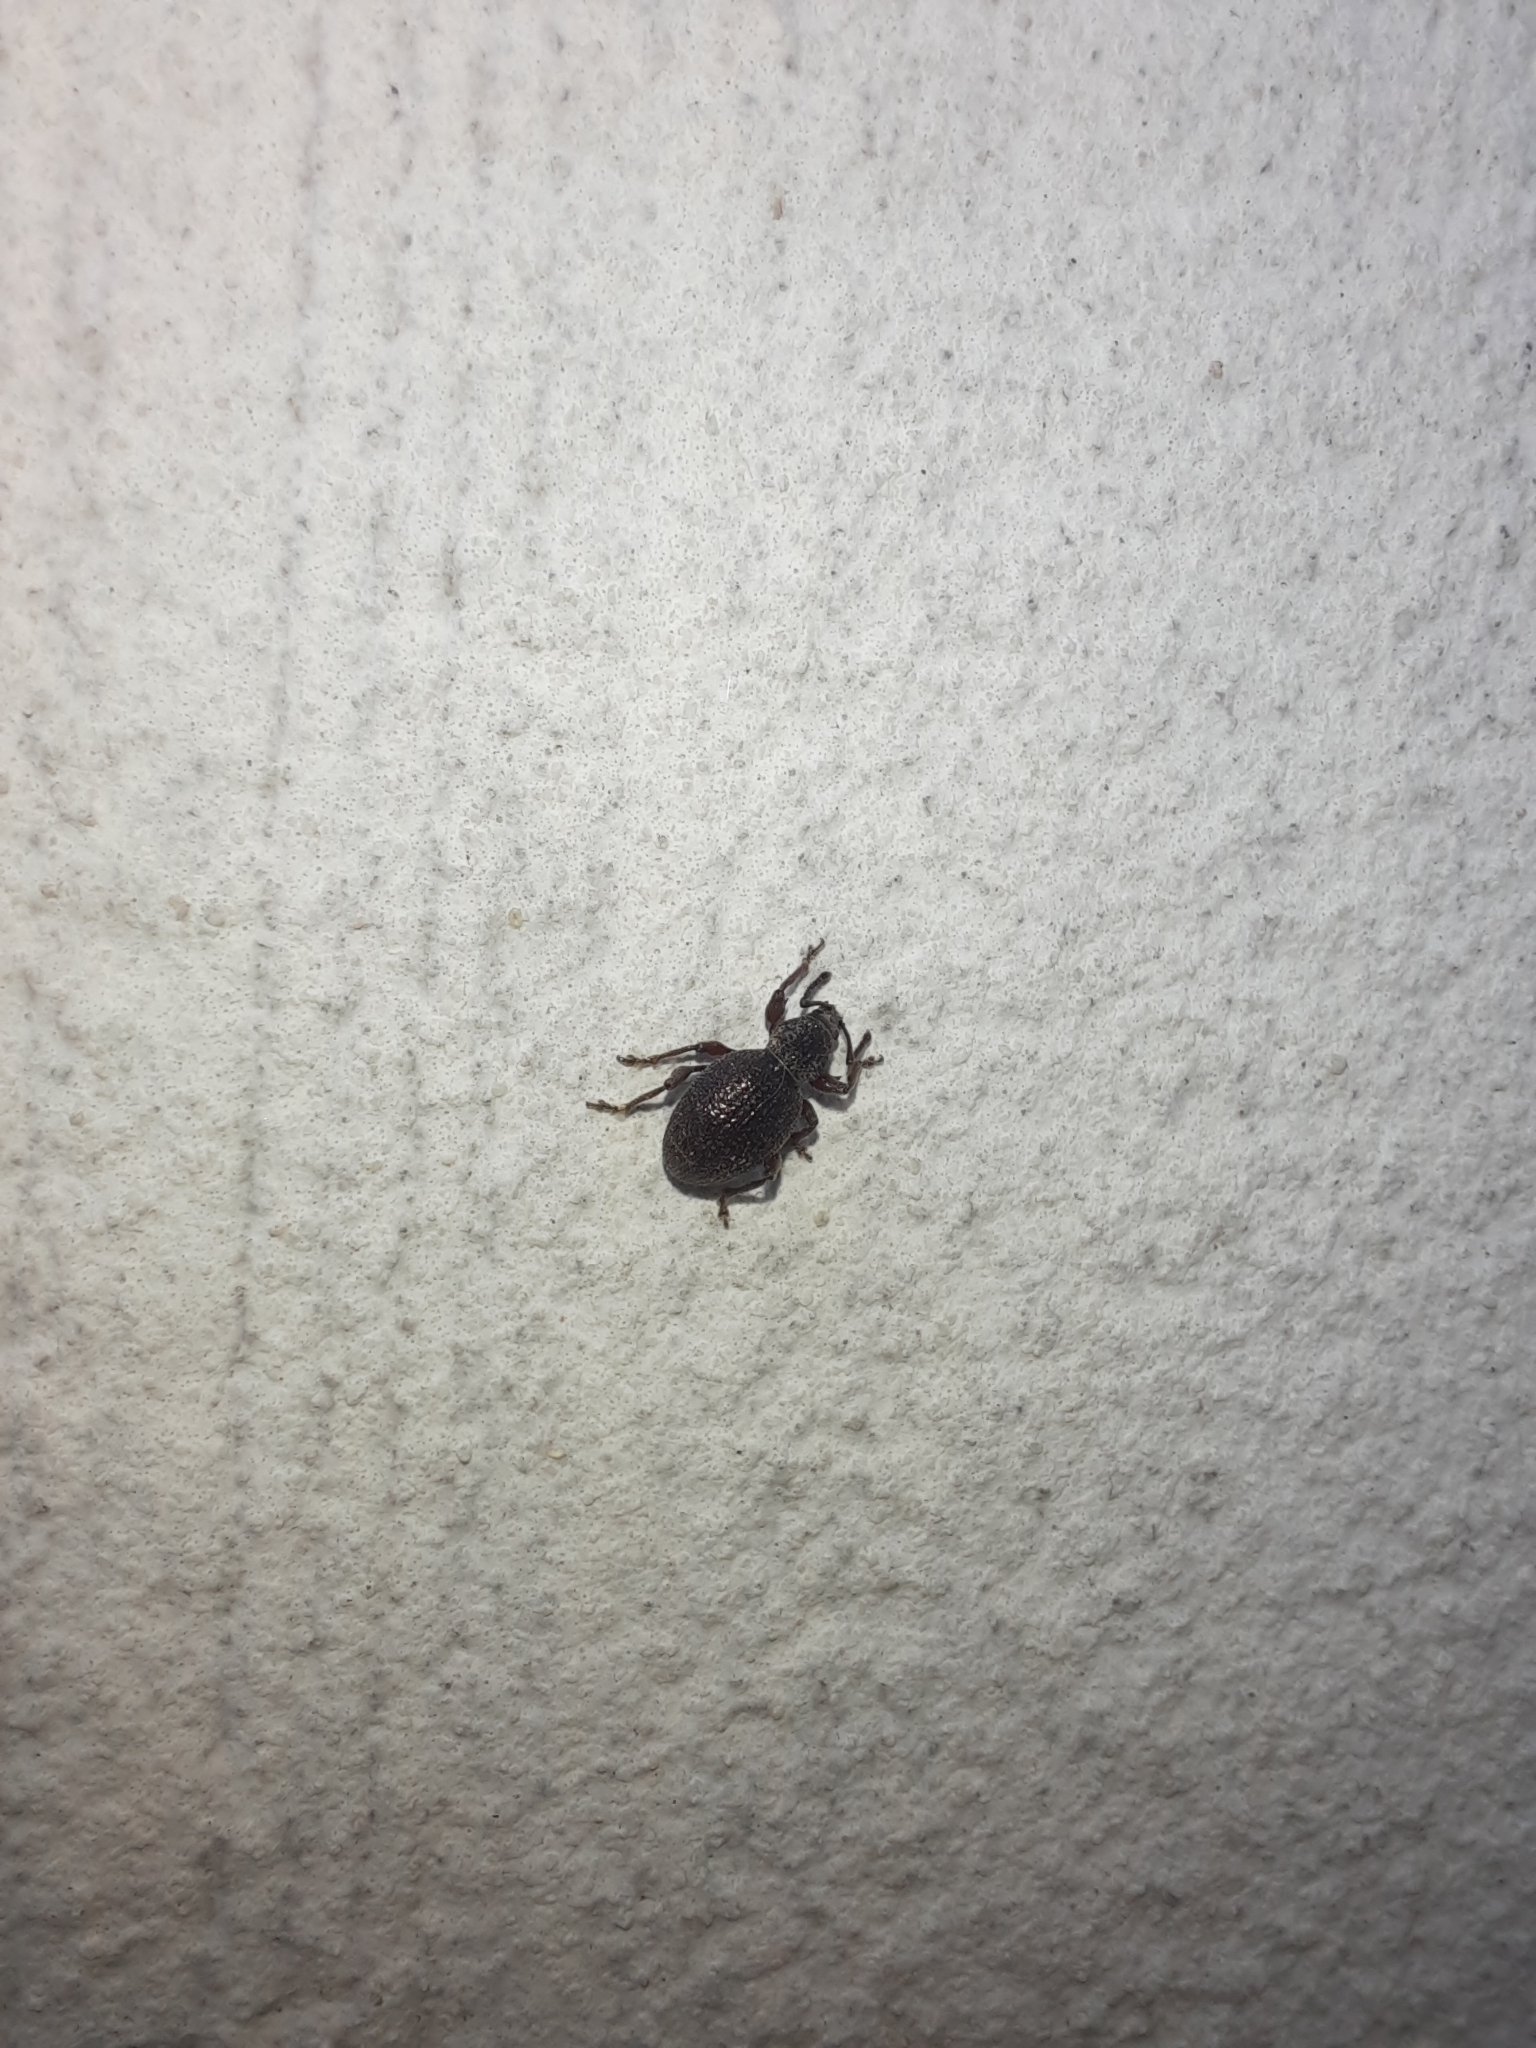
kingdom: Animalia
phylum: Arthropoda
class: Insecta
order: Coleoptera
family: Curculionidae
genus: Otiorhynchus
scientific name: Otiorhynchus ovatus
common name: Strawberry root weevil
